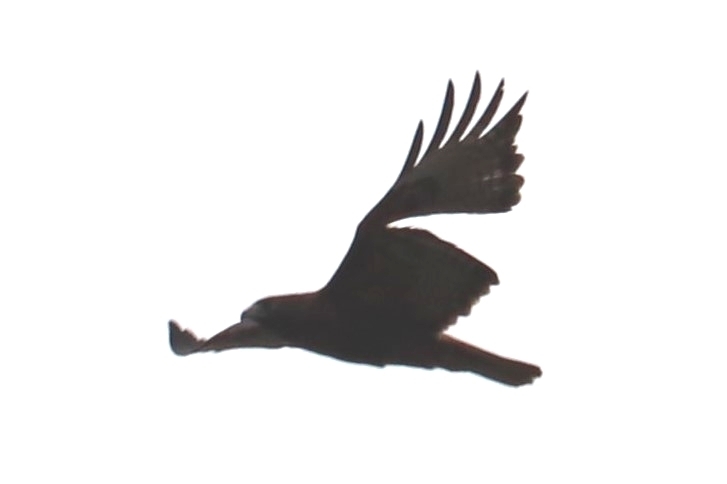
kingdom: Animalia
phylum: Chordata
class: Aves
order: Accipitriformes
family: Accipitridae
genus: Buteo
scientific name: Buteo jamaicensis
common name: Red-tailed hawk
